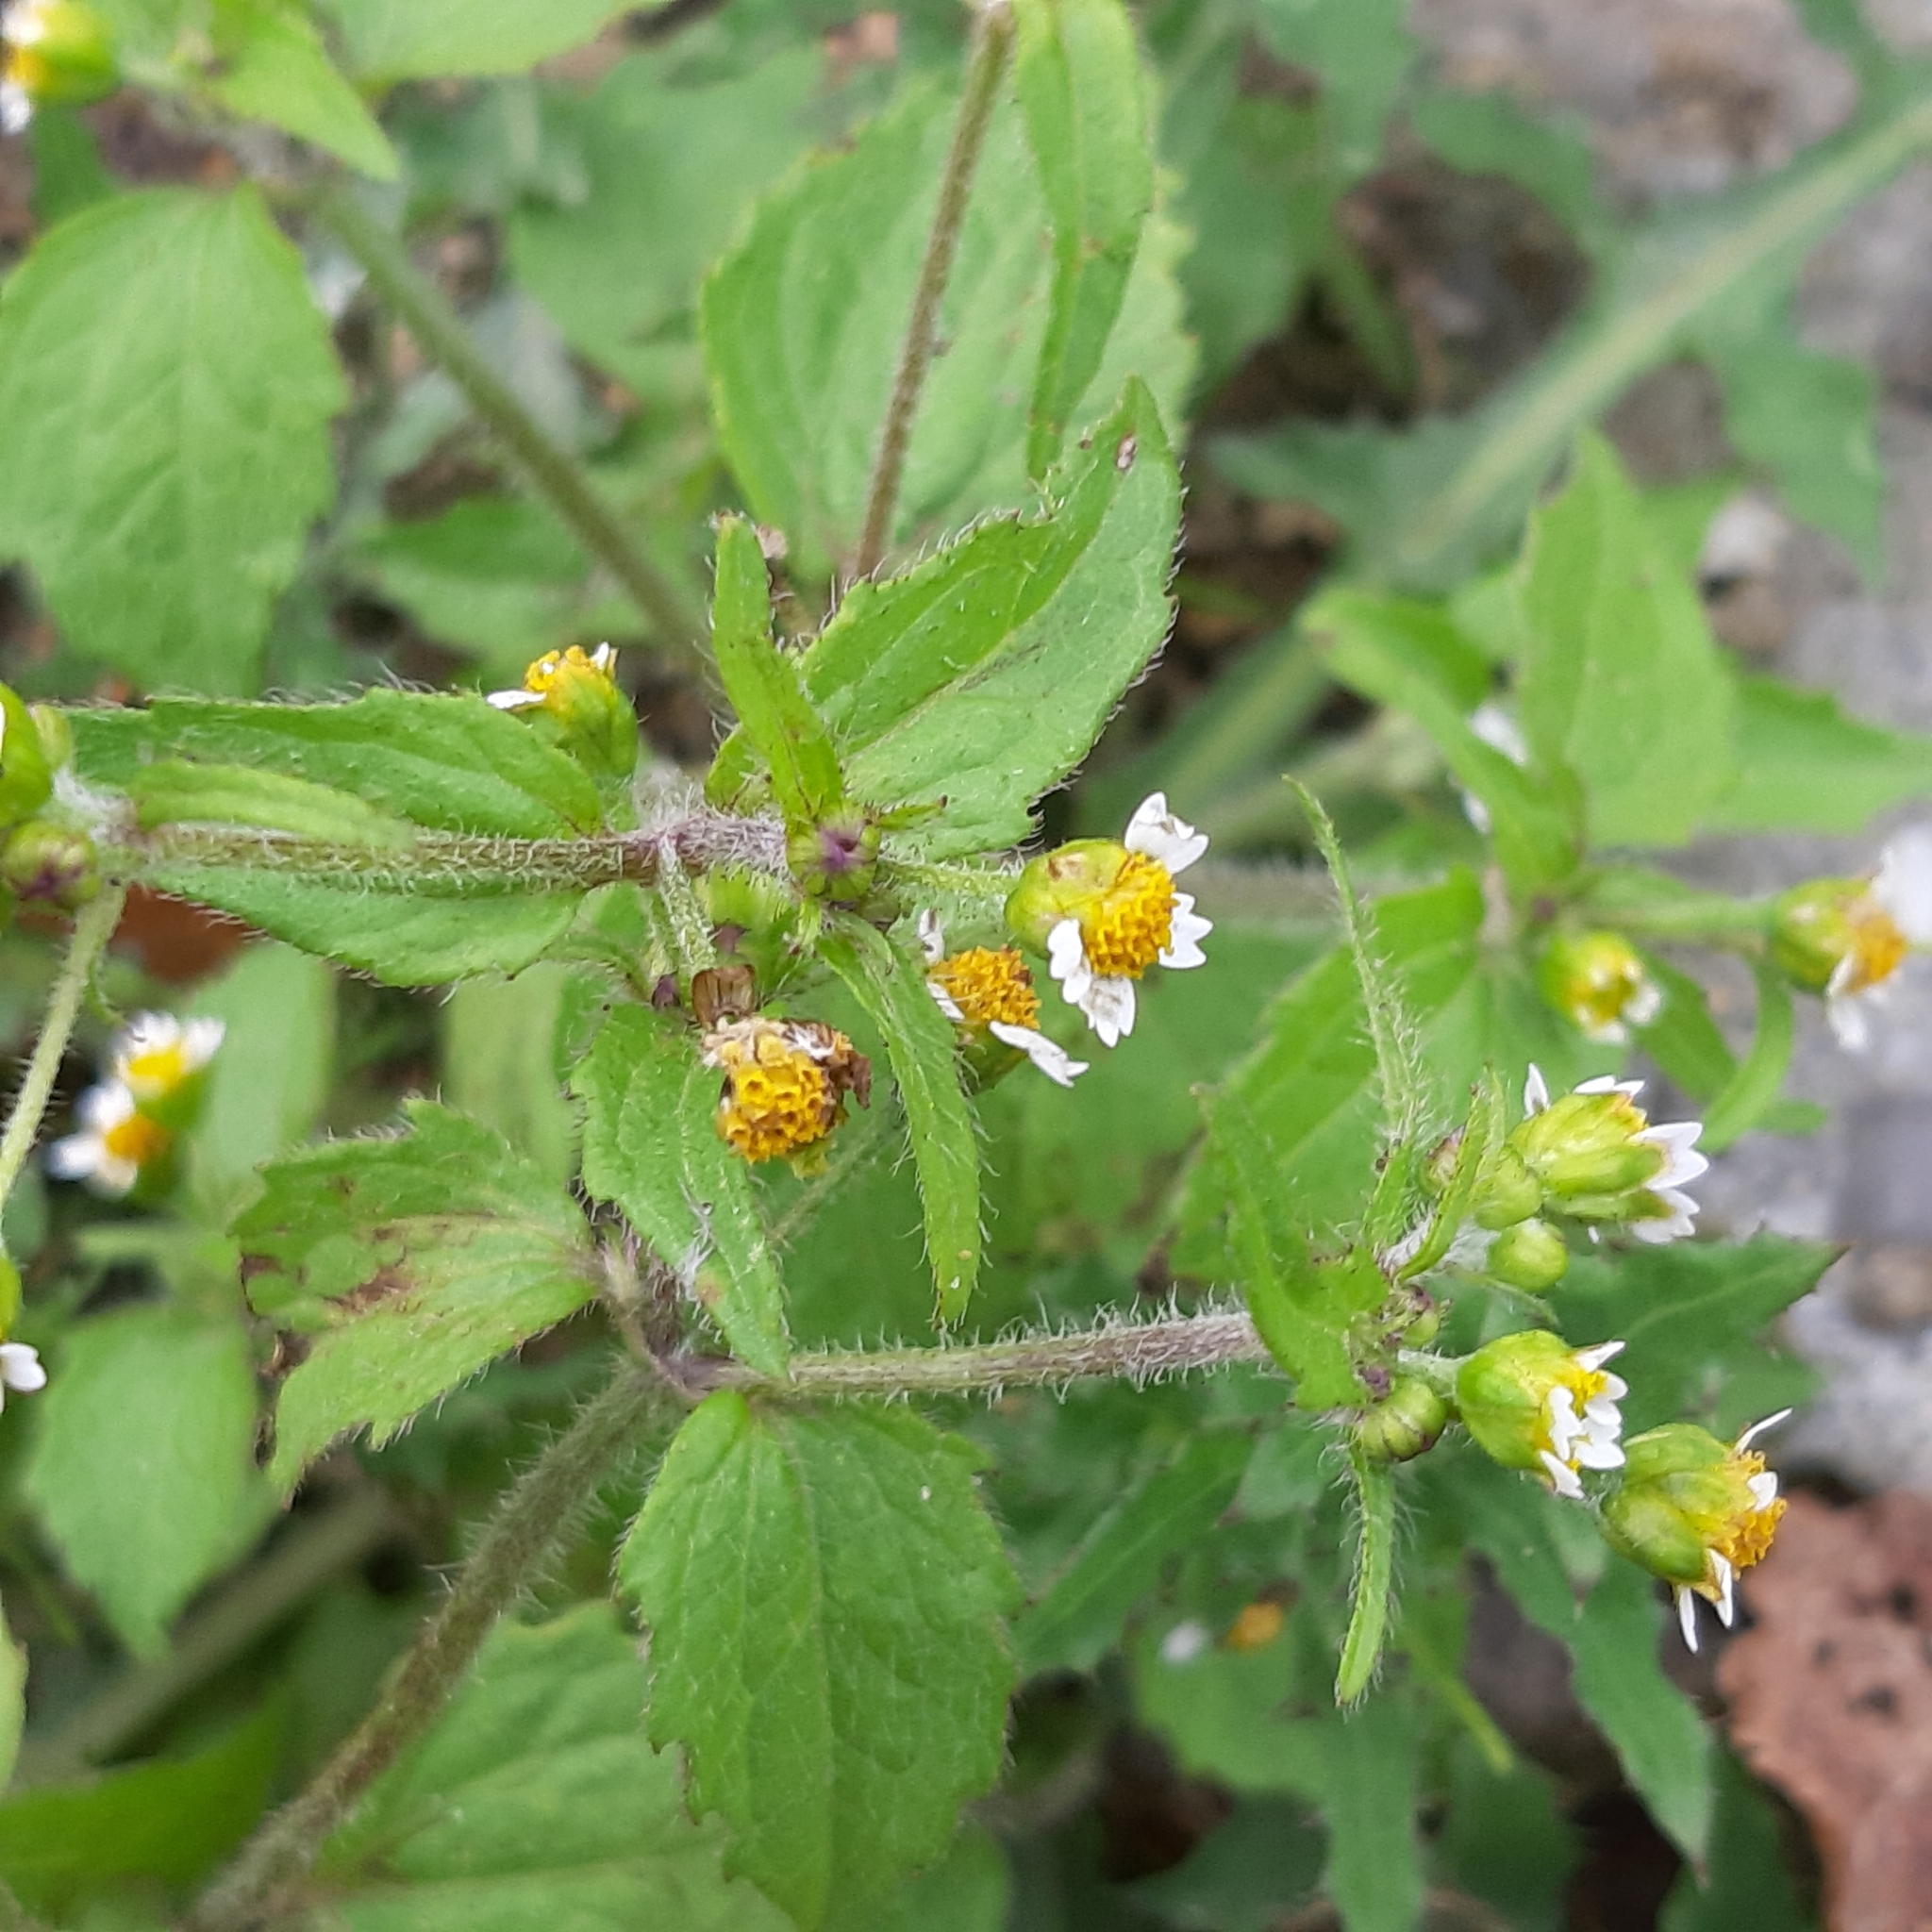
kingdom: Plantae
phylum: Tracheophyta
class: Magnoliopsida
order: Asterales
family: Asteraceae
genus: Galinsoga
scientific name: Galinsoga quadriradiata
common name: Shaggy soldier
